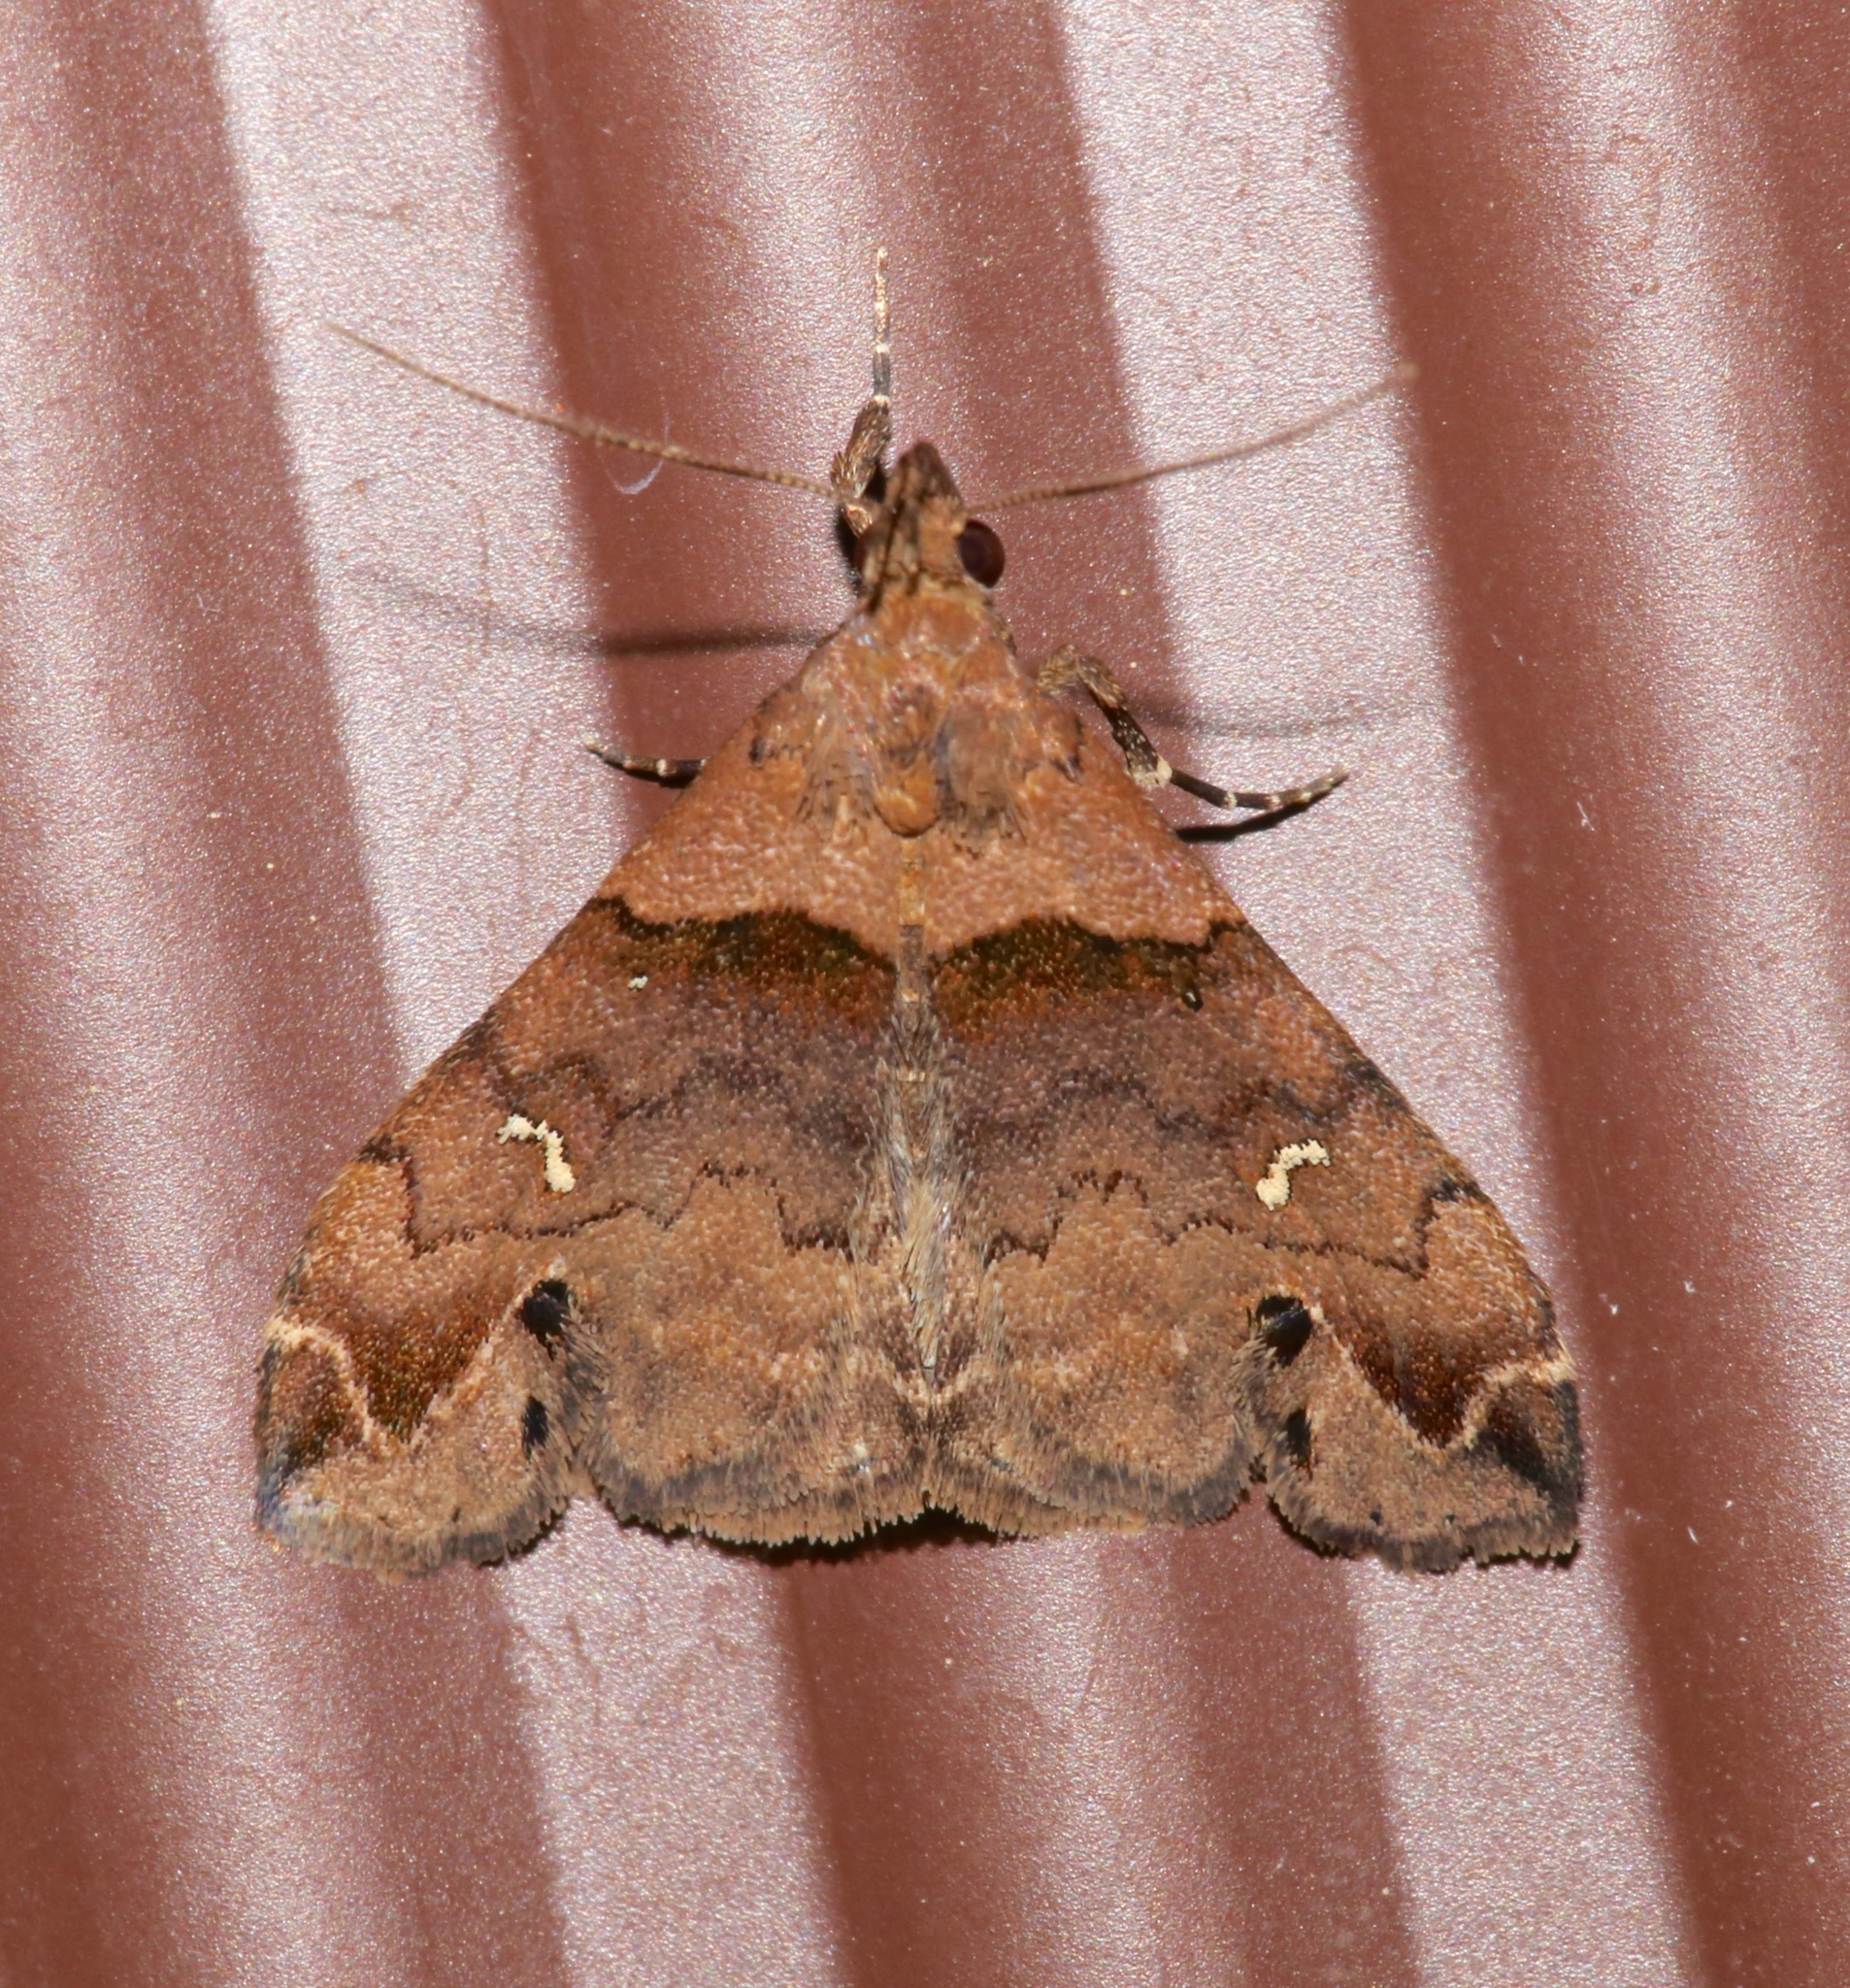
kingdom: Animalia
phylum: Arthropoda
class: Insecta
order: Lepidoptera
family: Erebidae
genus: Lascoria
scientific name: Lascoria ambigualis
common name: Ambiguous moth
